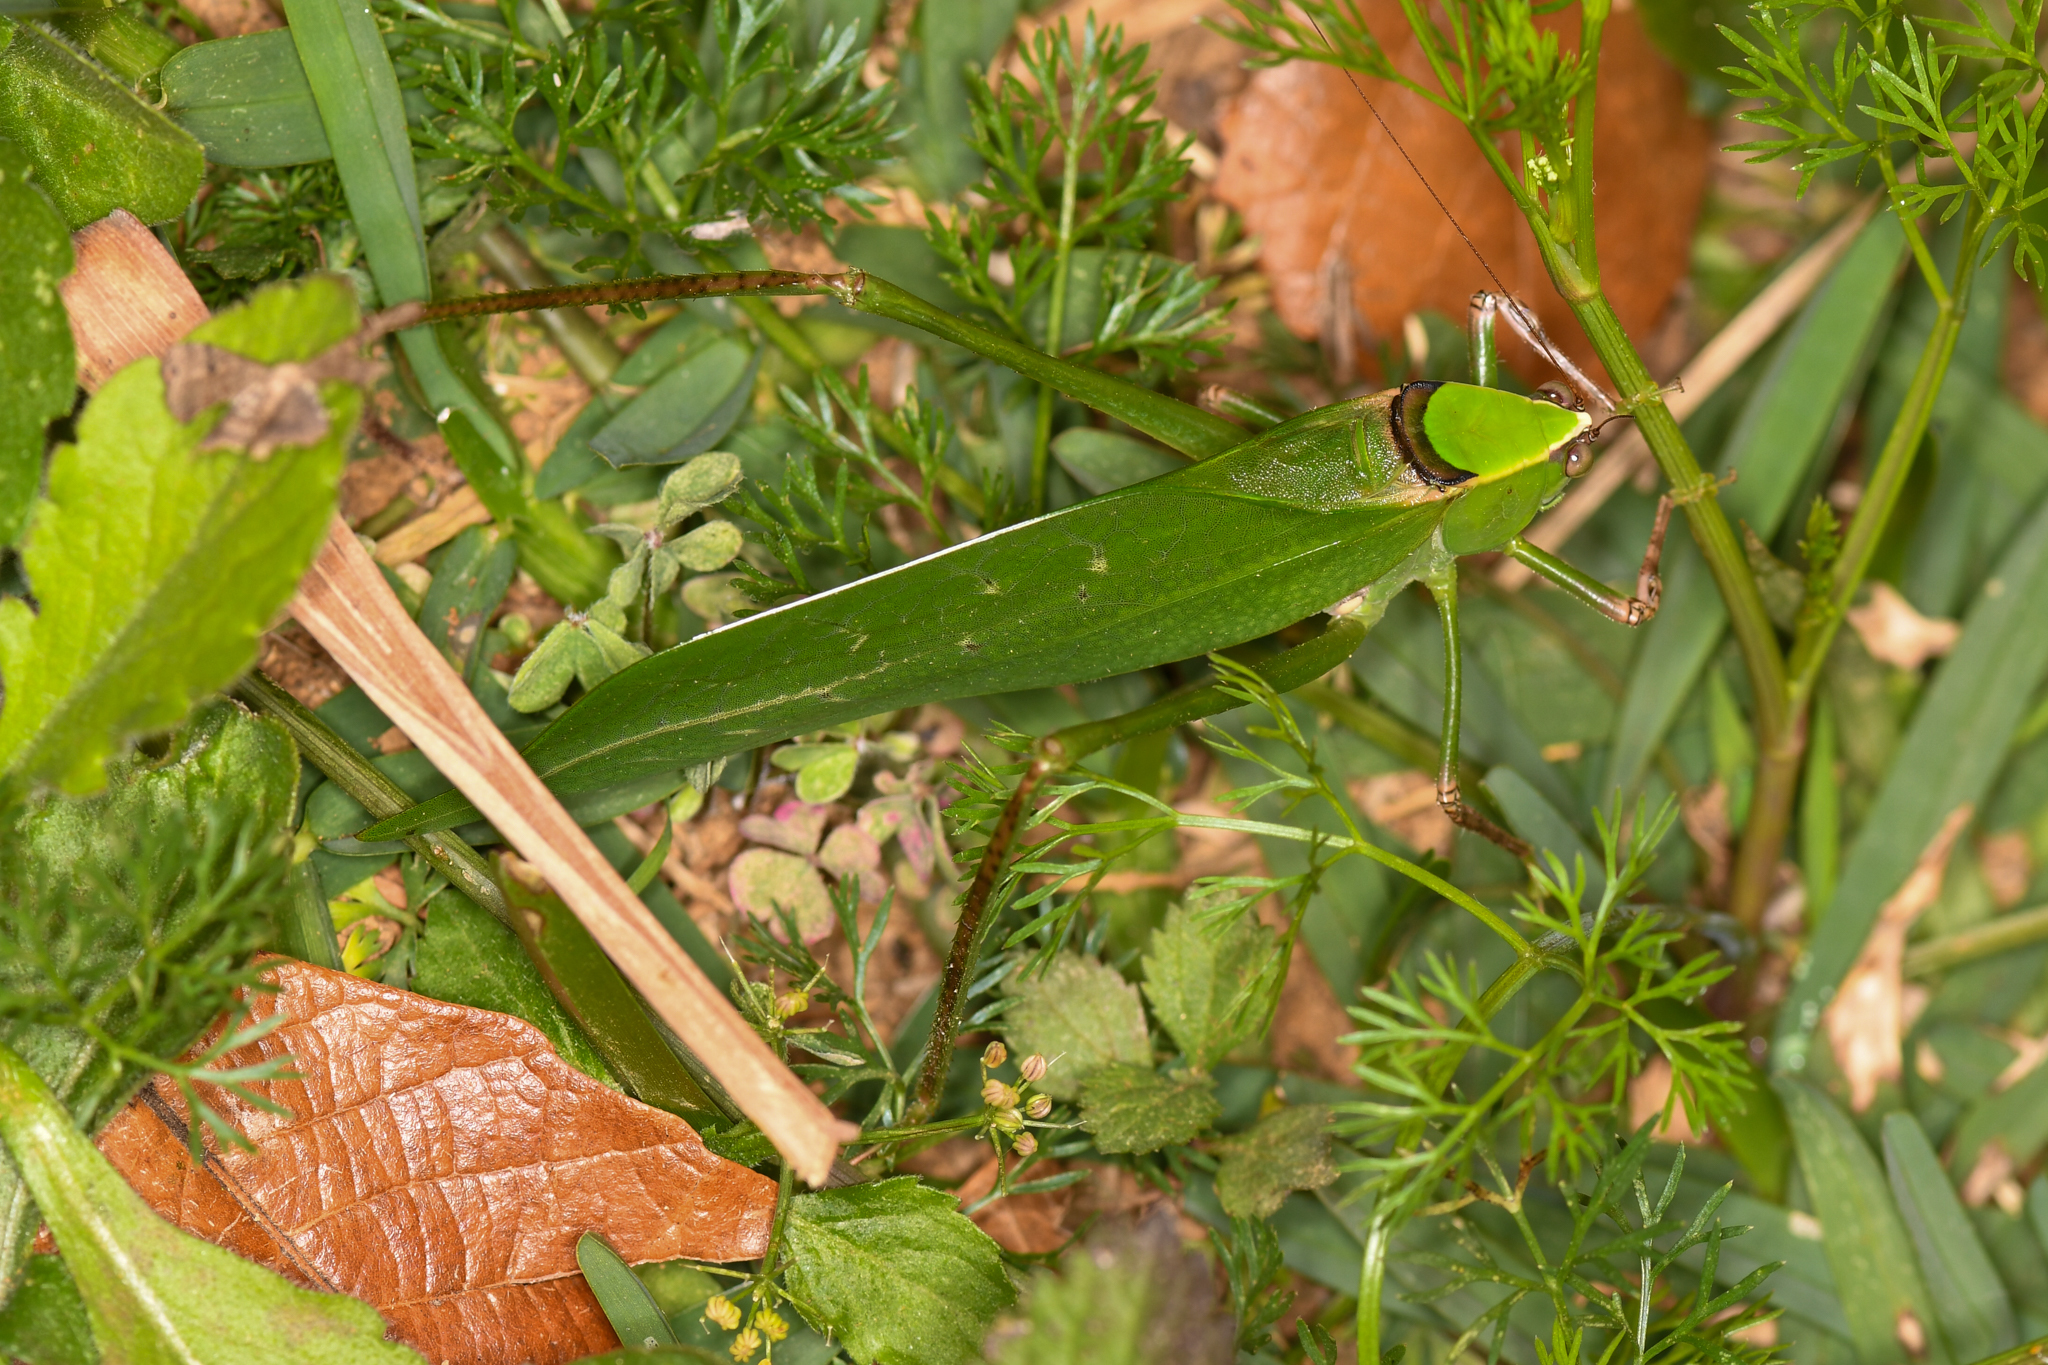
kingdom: Animalia
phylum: Arthropoda
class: Insecta
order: Orthoptera
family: Tettigoniidae
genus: Stilpnochlora
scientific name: Stilpnochlora thoracica
